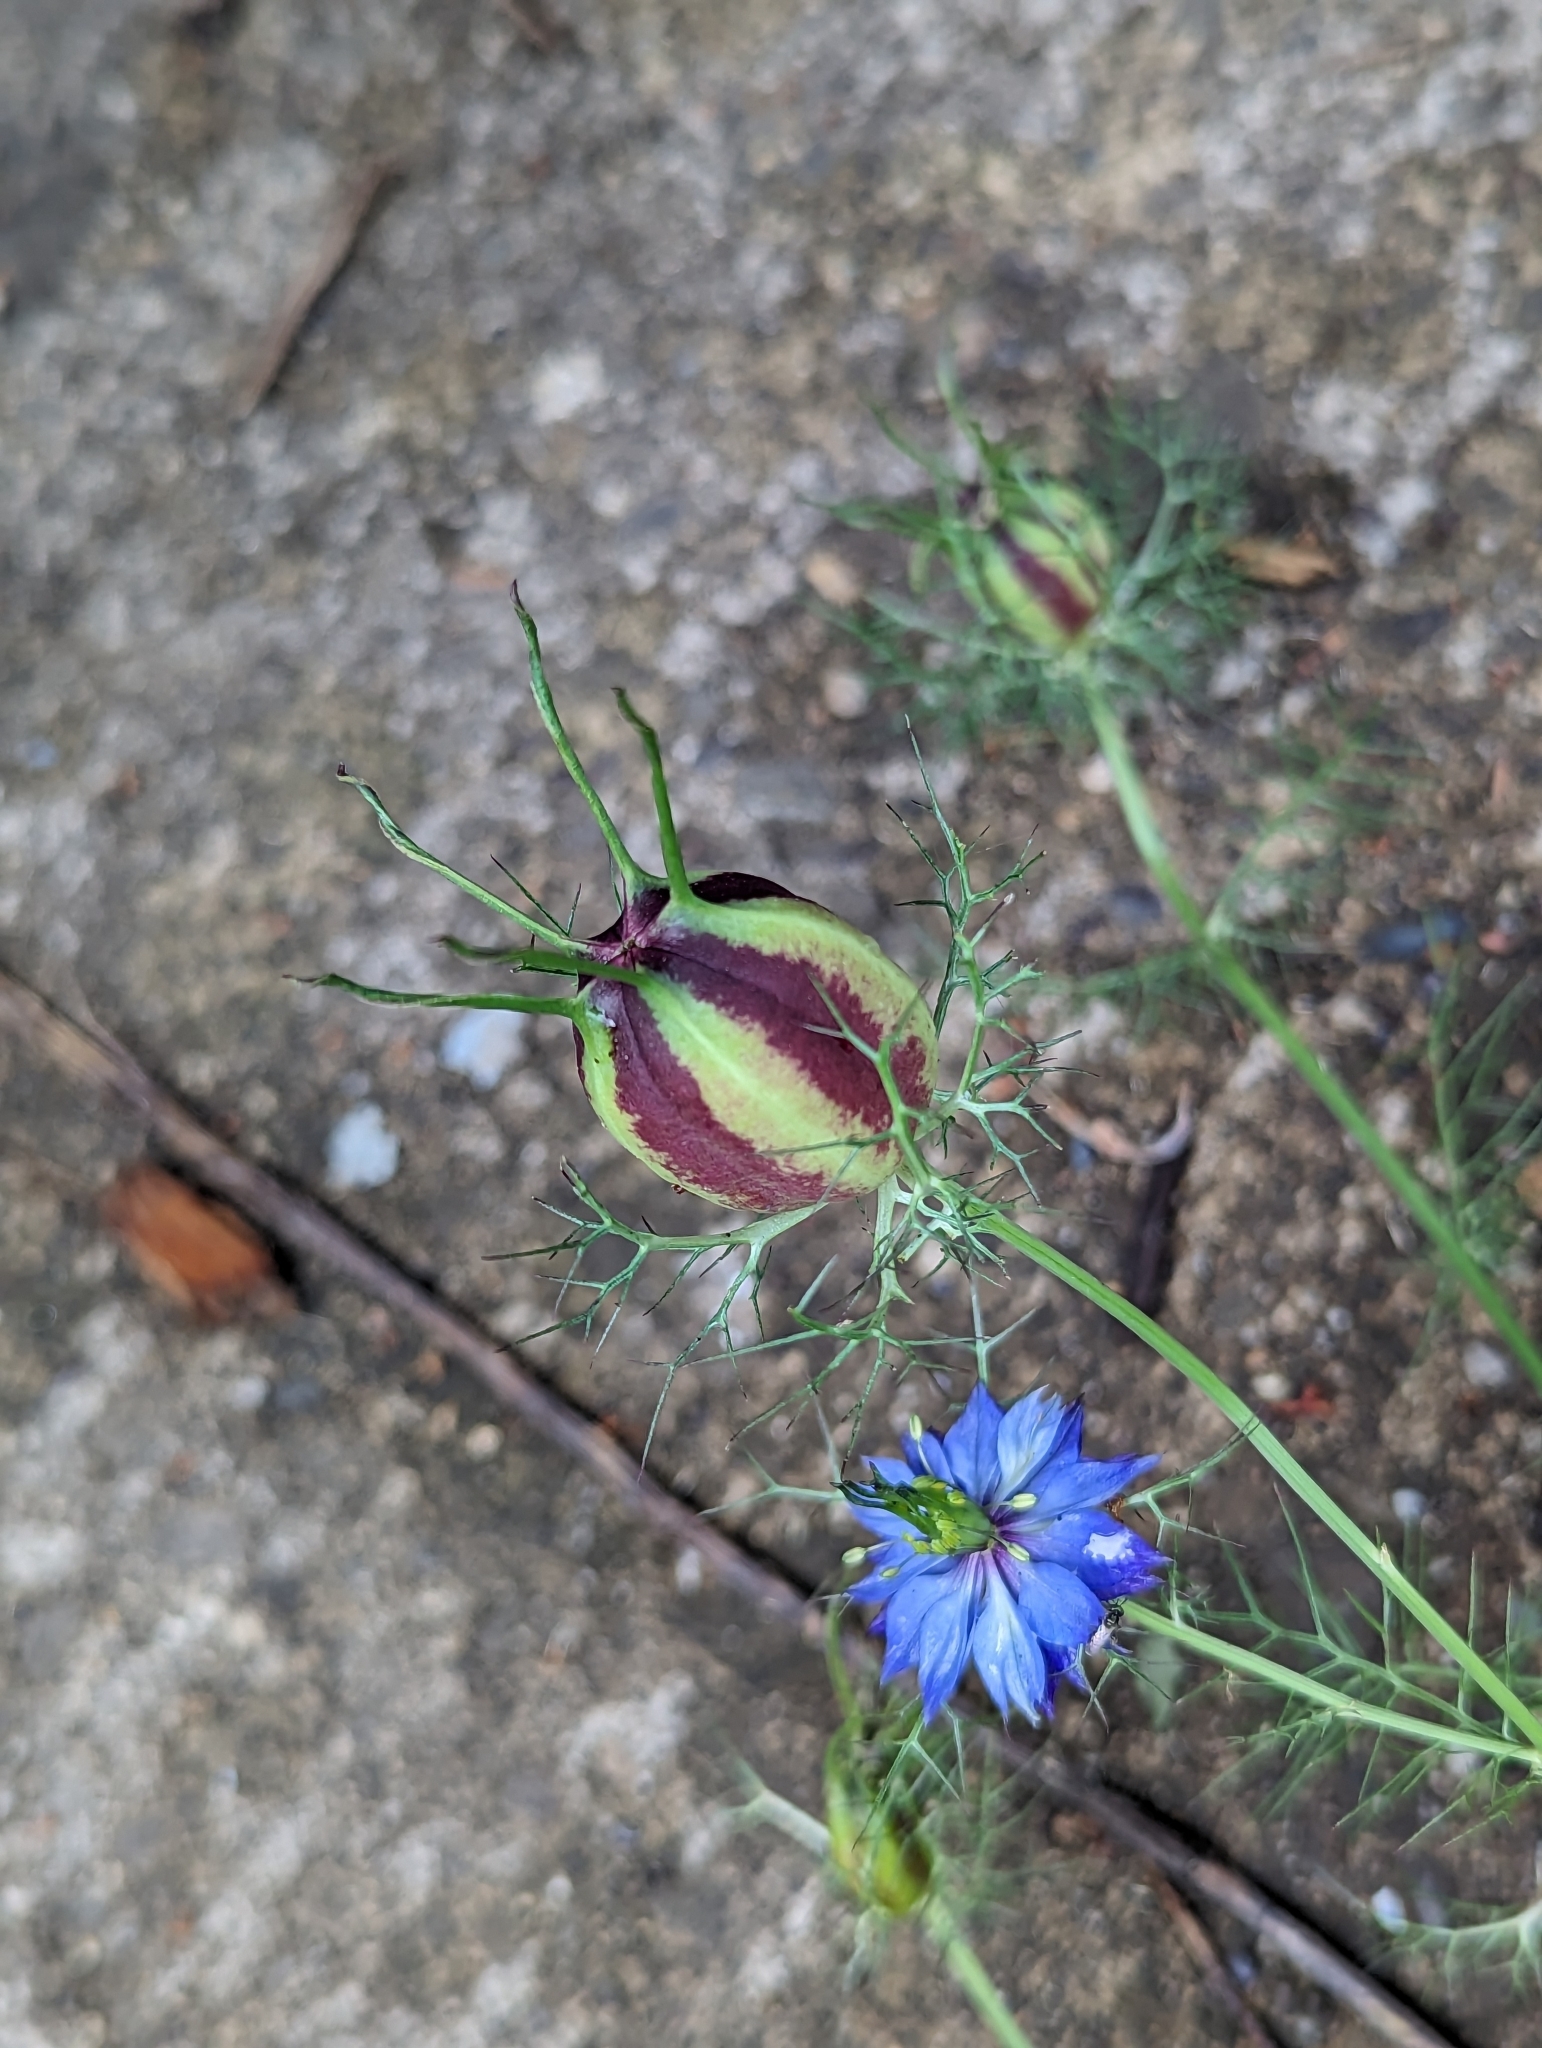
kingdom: Plantae
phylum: Tracheophyta
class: Magnoliopsida
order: Ranunculales
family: Ranunculaceae
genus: Nigella
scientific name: Nigella damascena
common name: Love-in-a-mist
